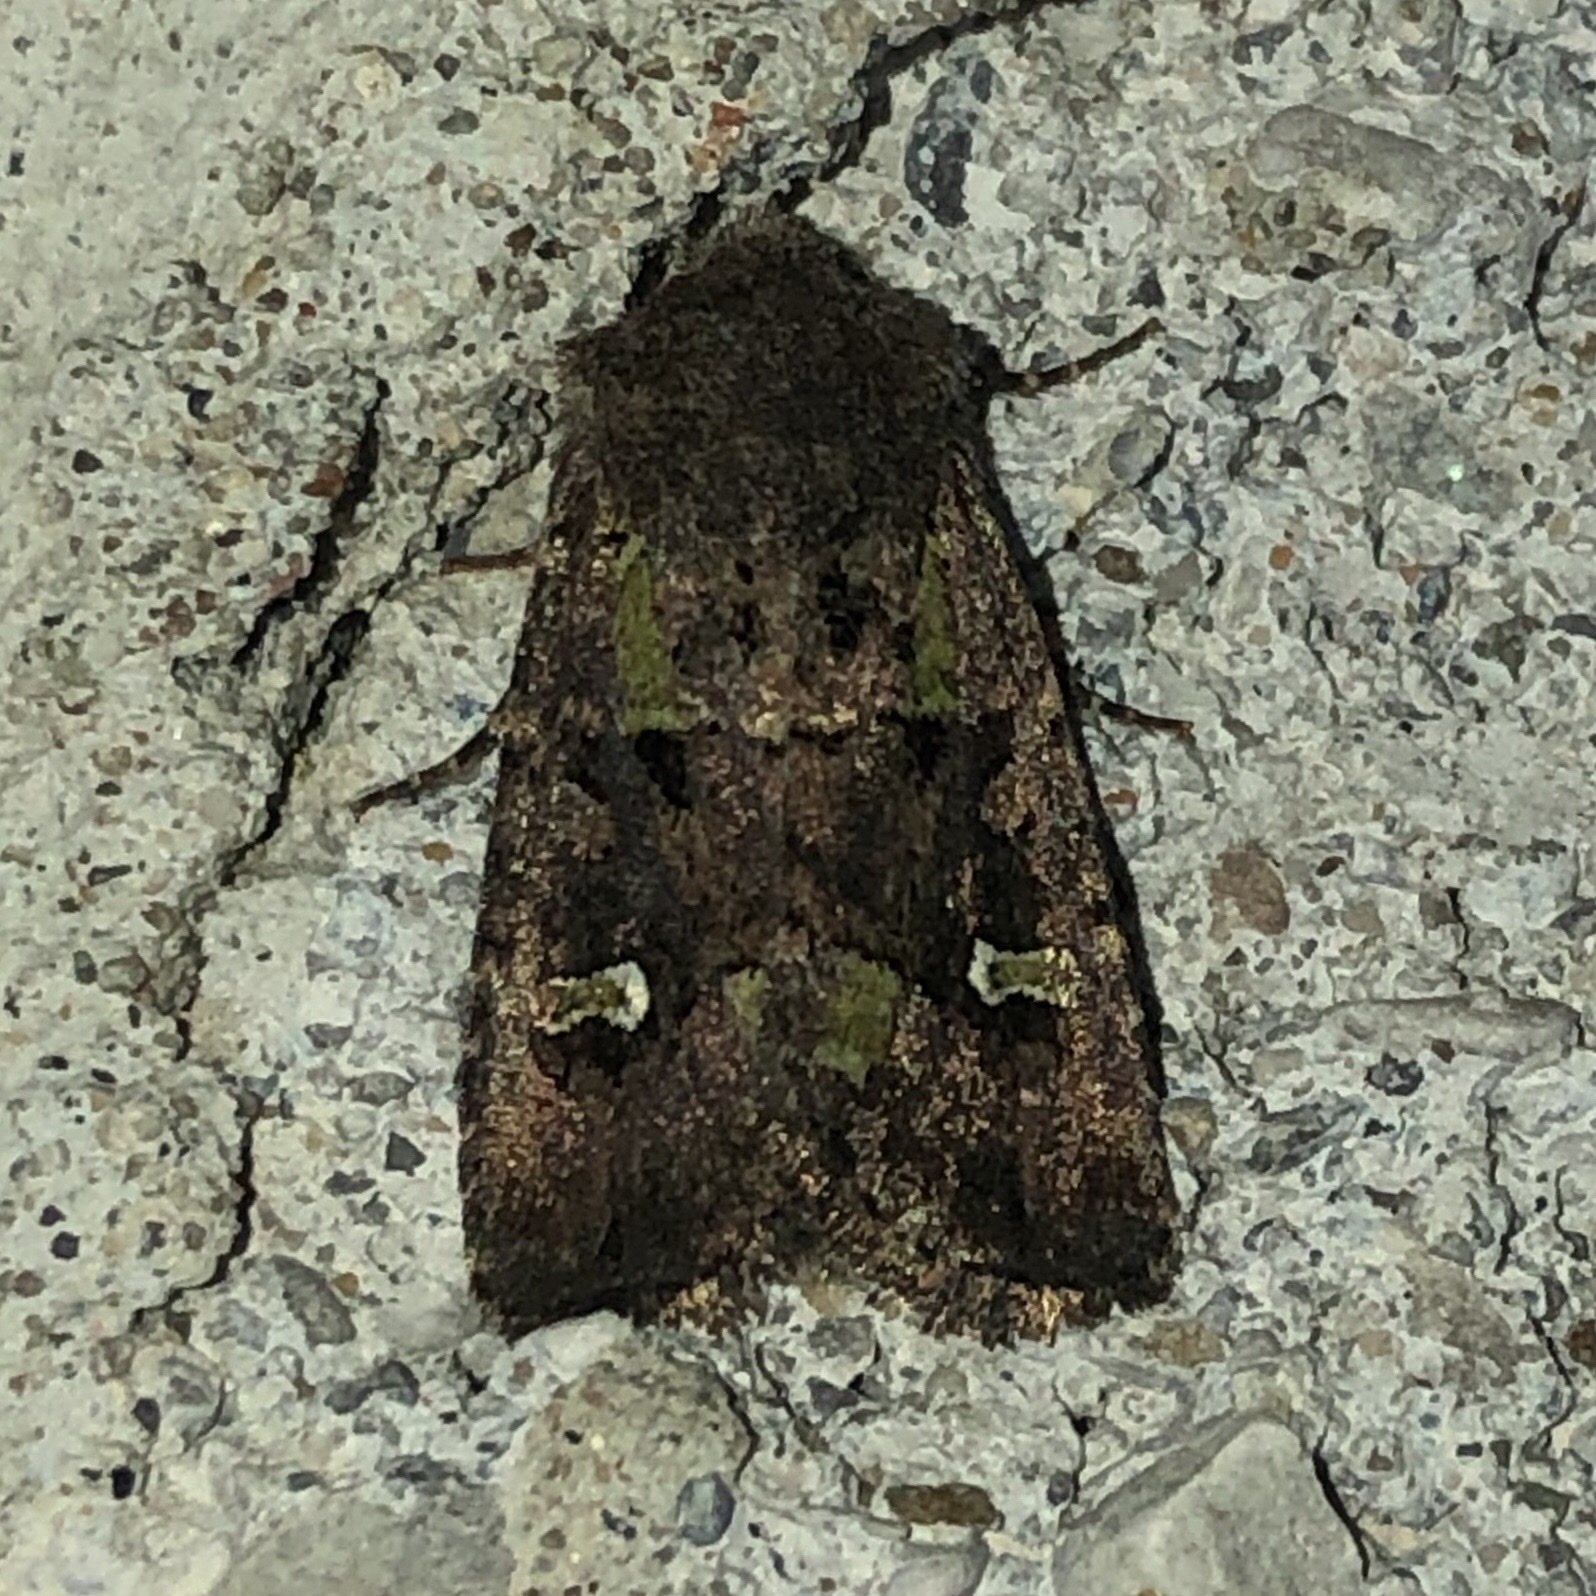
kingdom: Animalia
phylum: Arthropoda
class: Insecta
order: Lepidoptera
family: Noctuidae
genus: Lacinipolia
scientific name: Lacinipolia renigera
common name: Kidney-spotted minor
